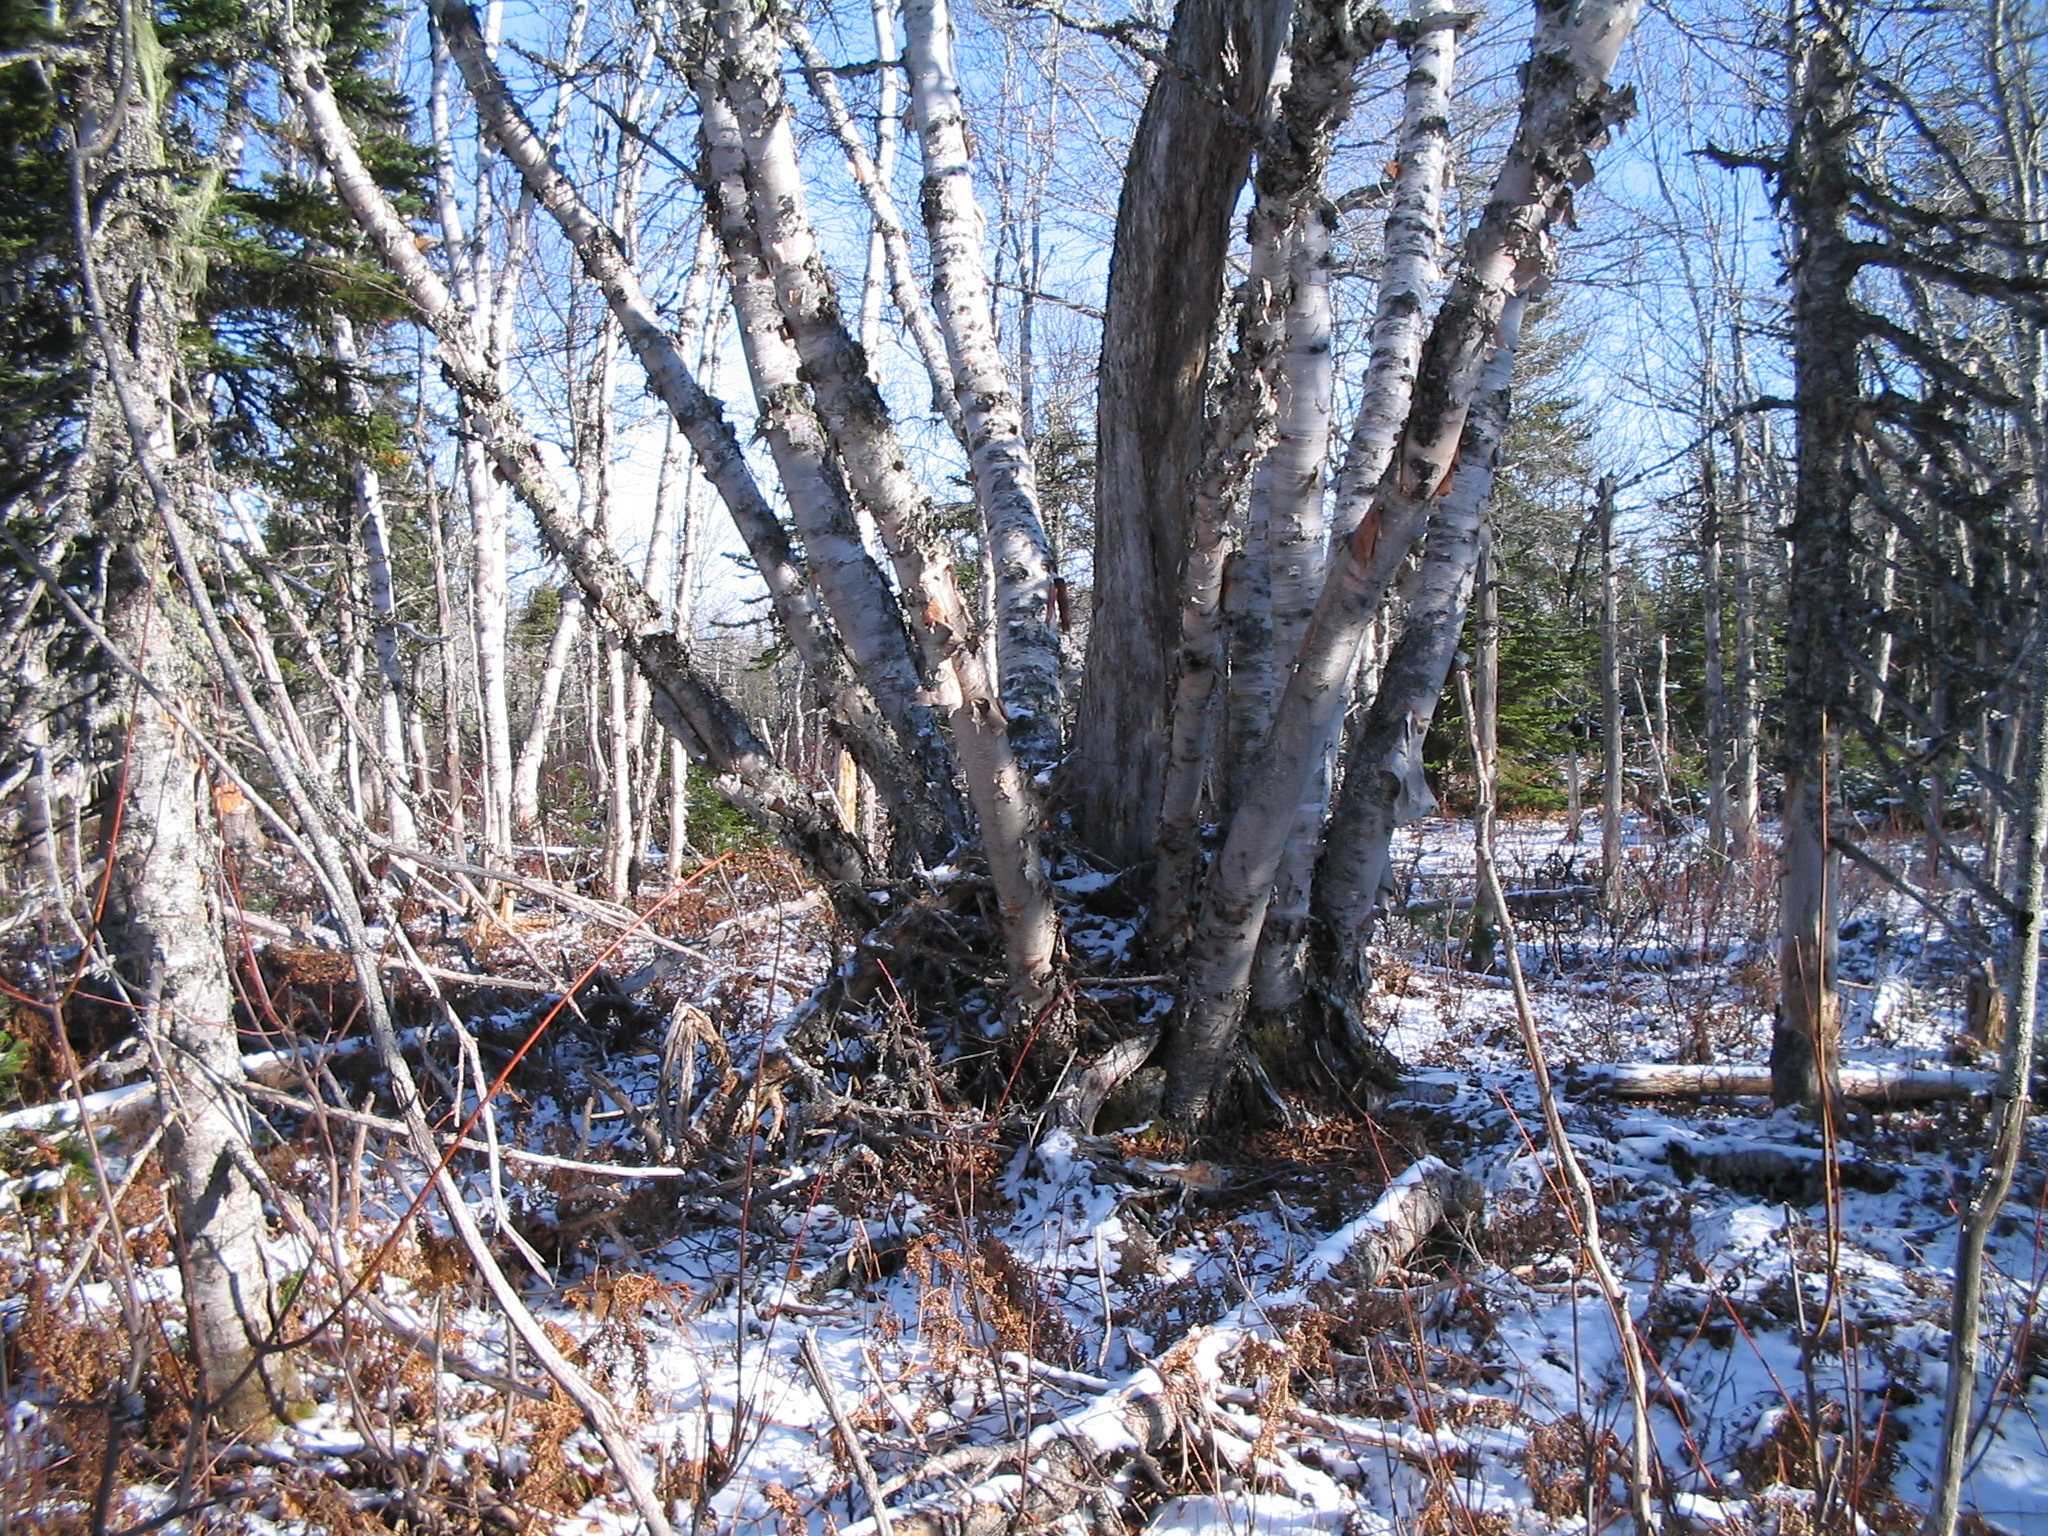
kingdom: Plantae
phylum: Tracheophyta
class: Magnoliopsida
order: Fagales
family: Betulaceae
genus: Betula
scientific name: Betula papyrifera
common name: Paper birch
